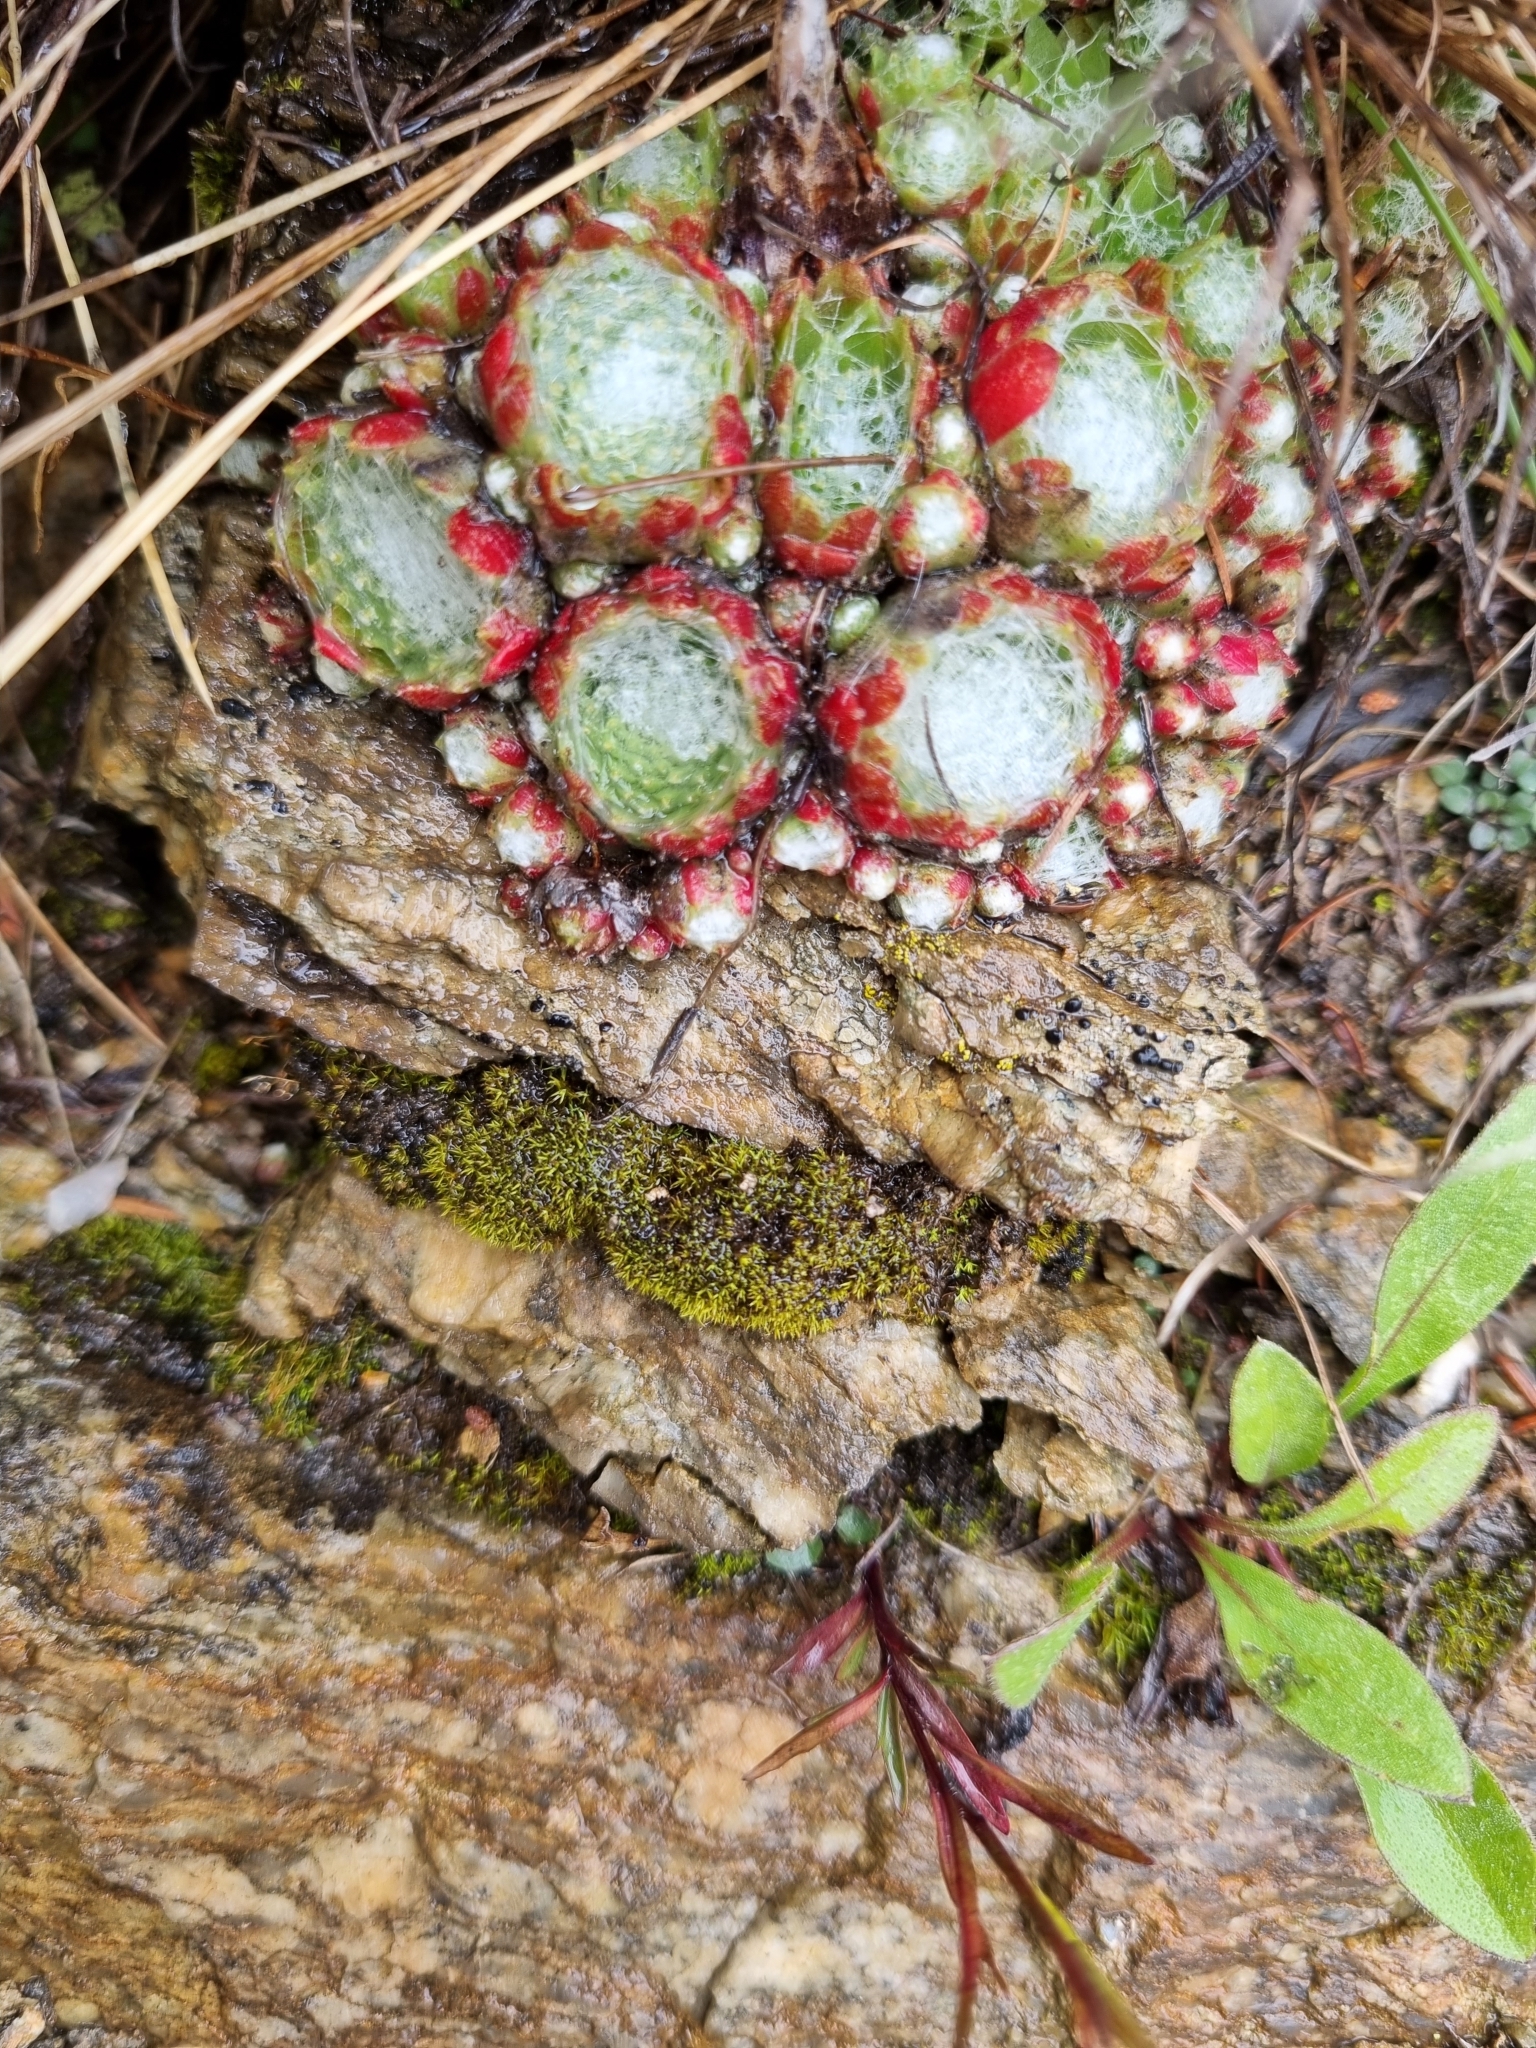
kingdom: Plantae
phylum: Tracheophyta
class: Magnoliopsida
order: Saxifragales
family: Crassulaceae
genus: Sempervivum
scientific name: Sempervivum arachnoideum
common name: Cobweb house-leek
